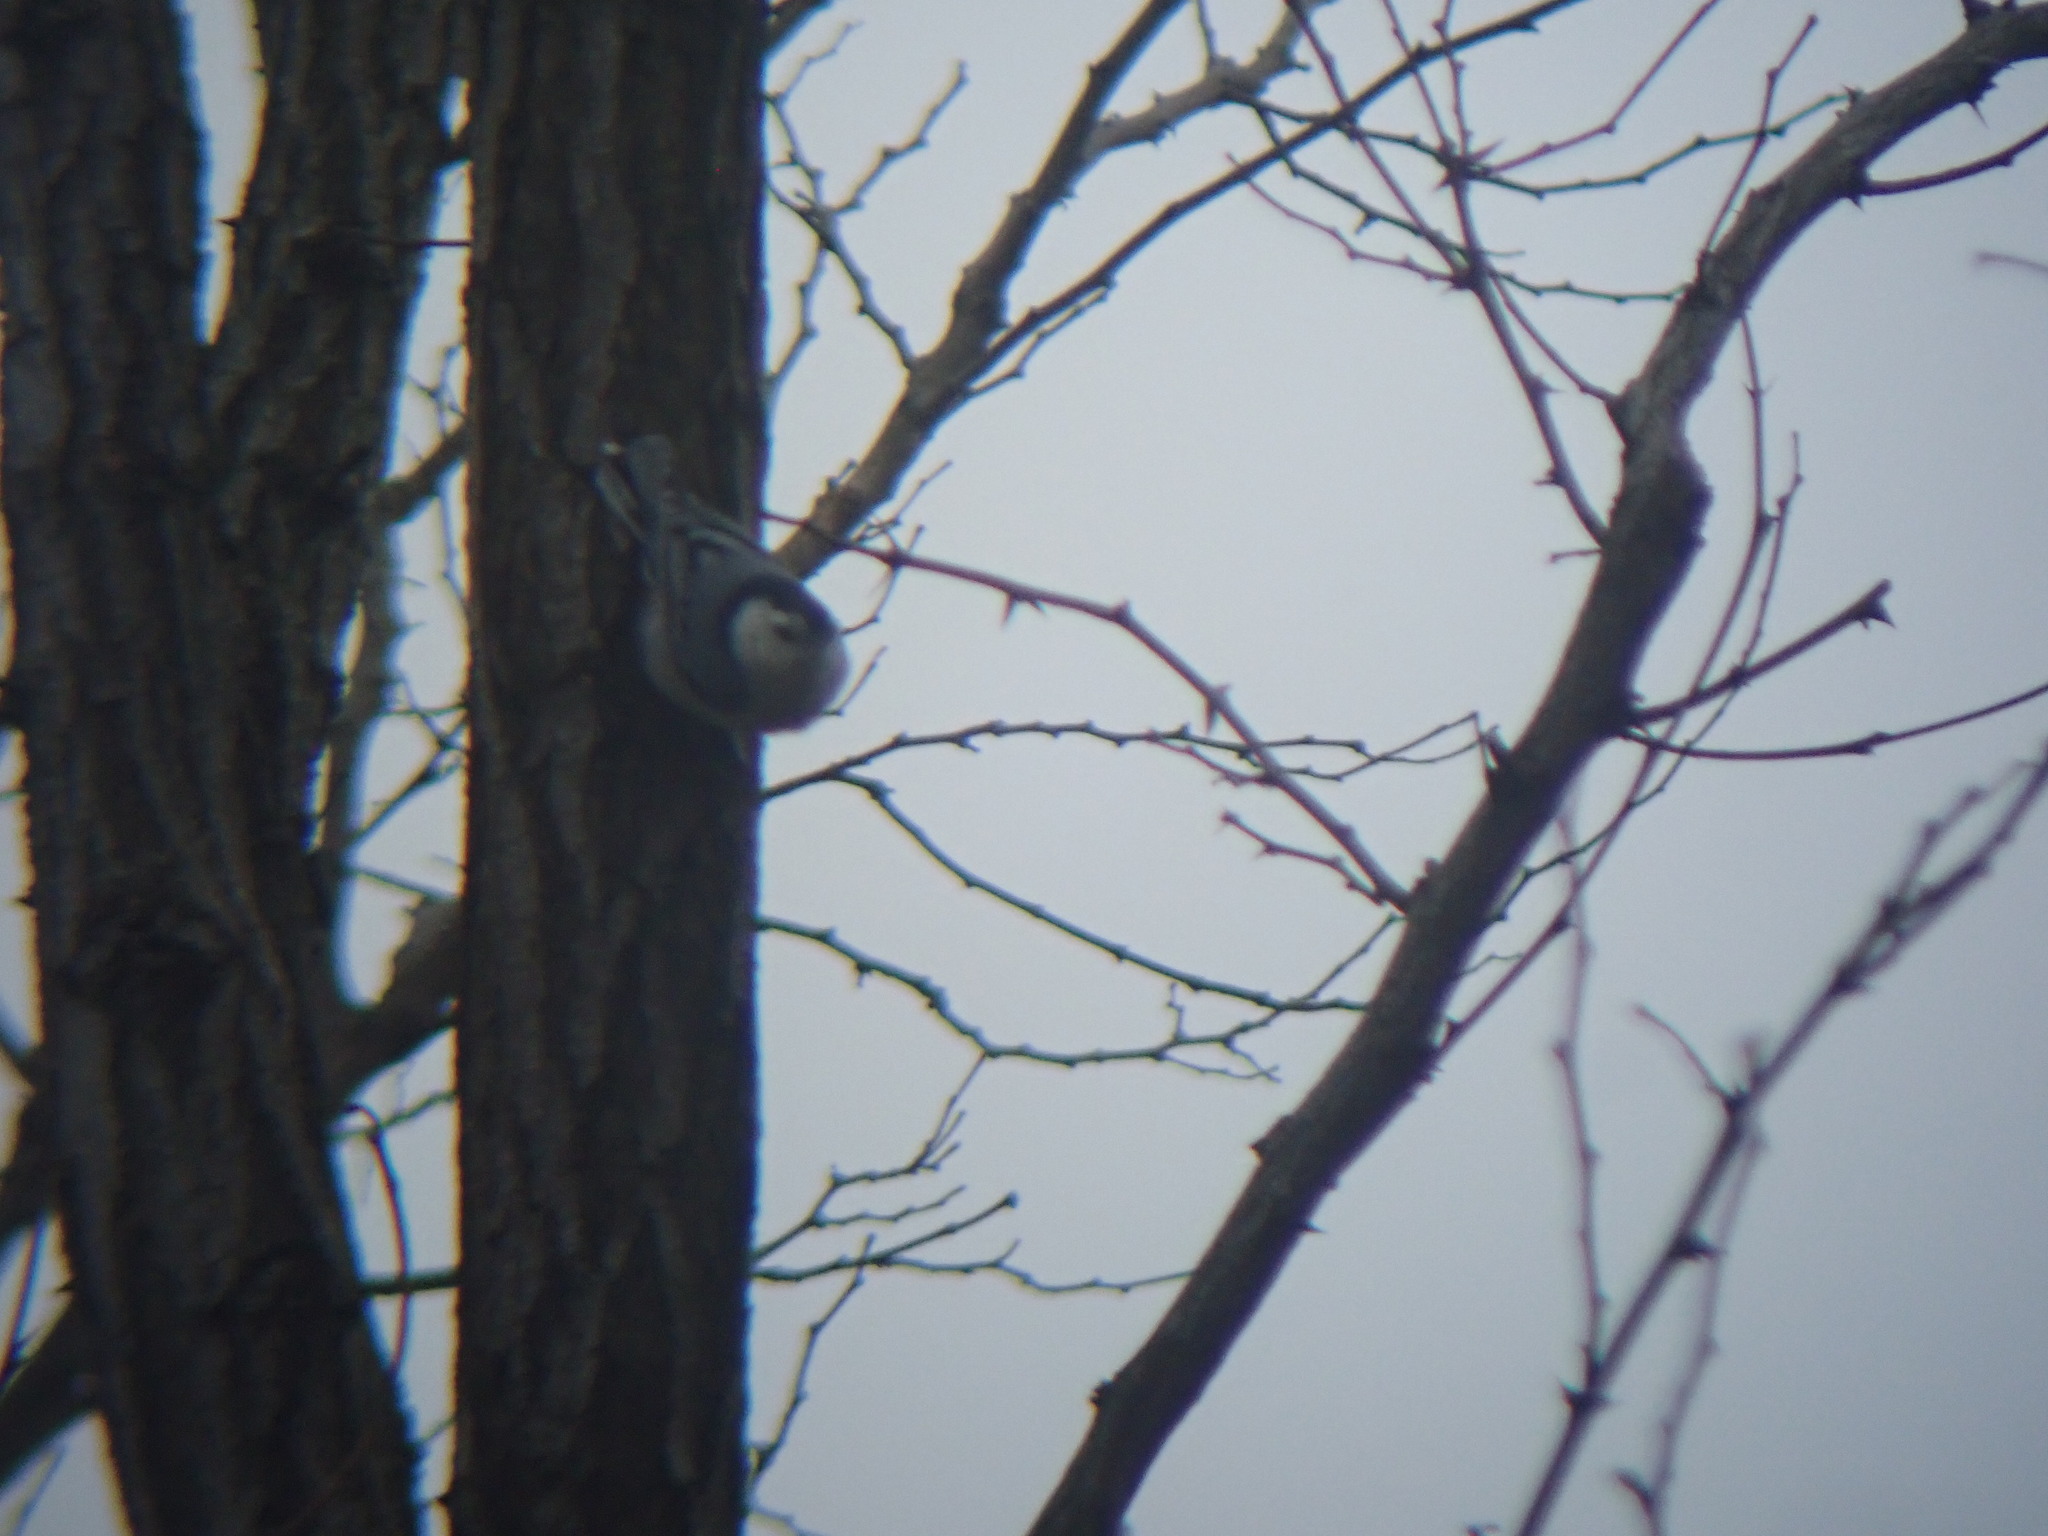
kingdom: Animalia
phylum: Chordata
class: Aves
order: Passeriformes
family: Sittidae
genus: Sitta
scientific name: Sitta carolinensis
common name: White-breasted nuthatch
